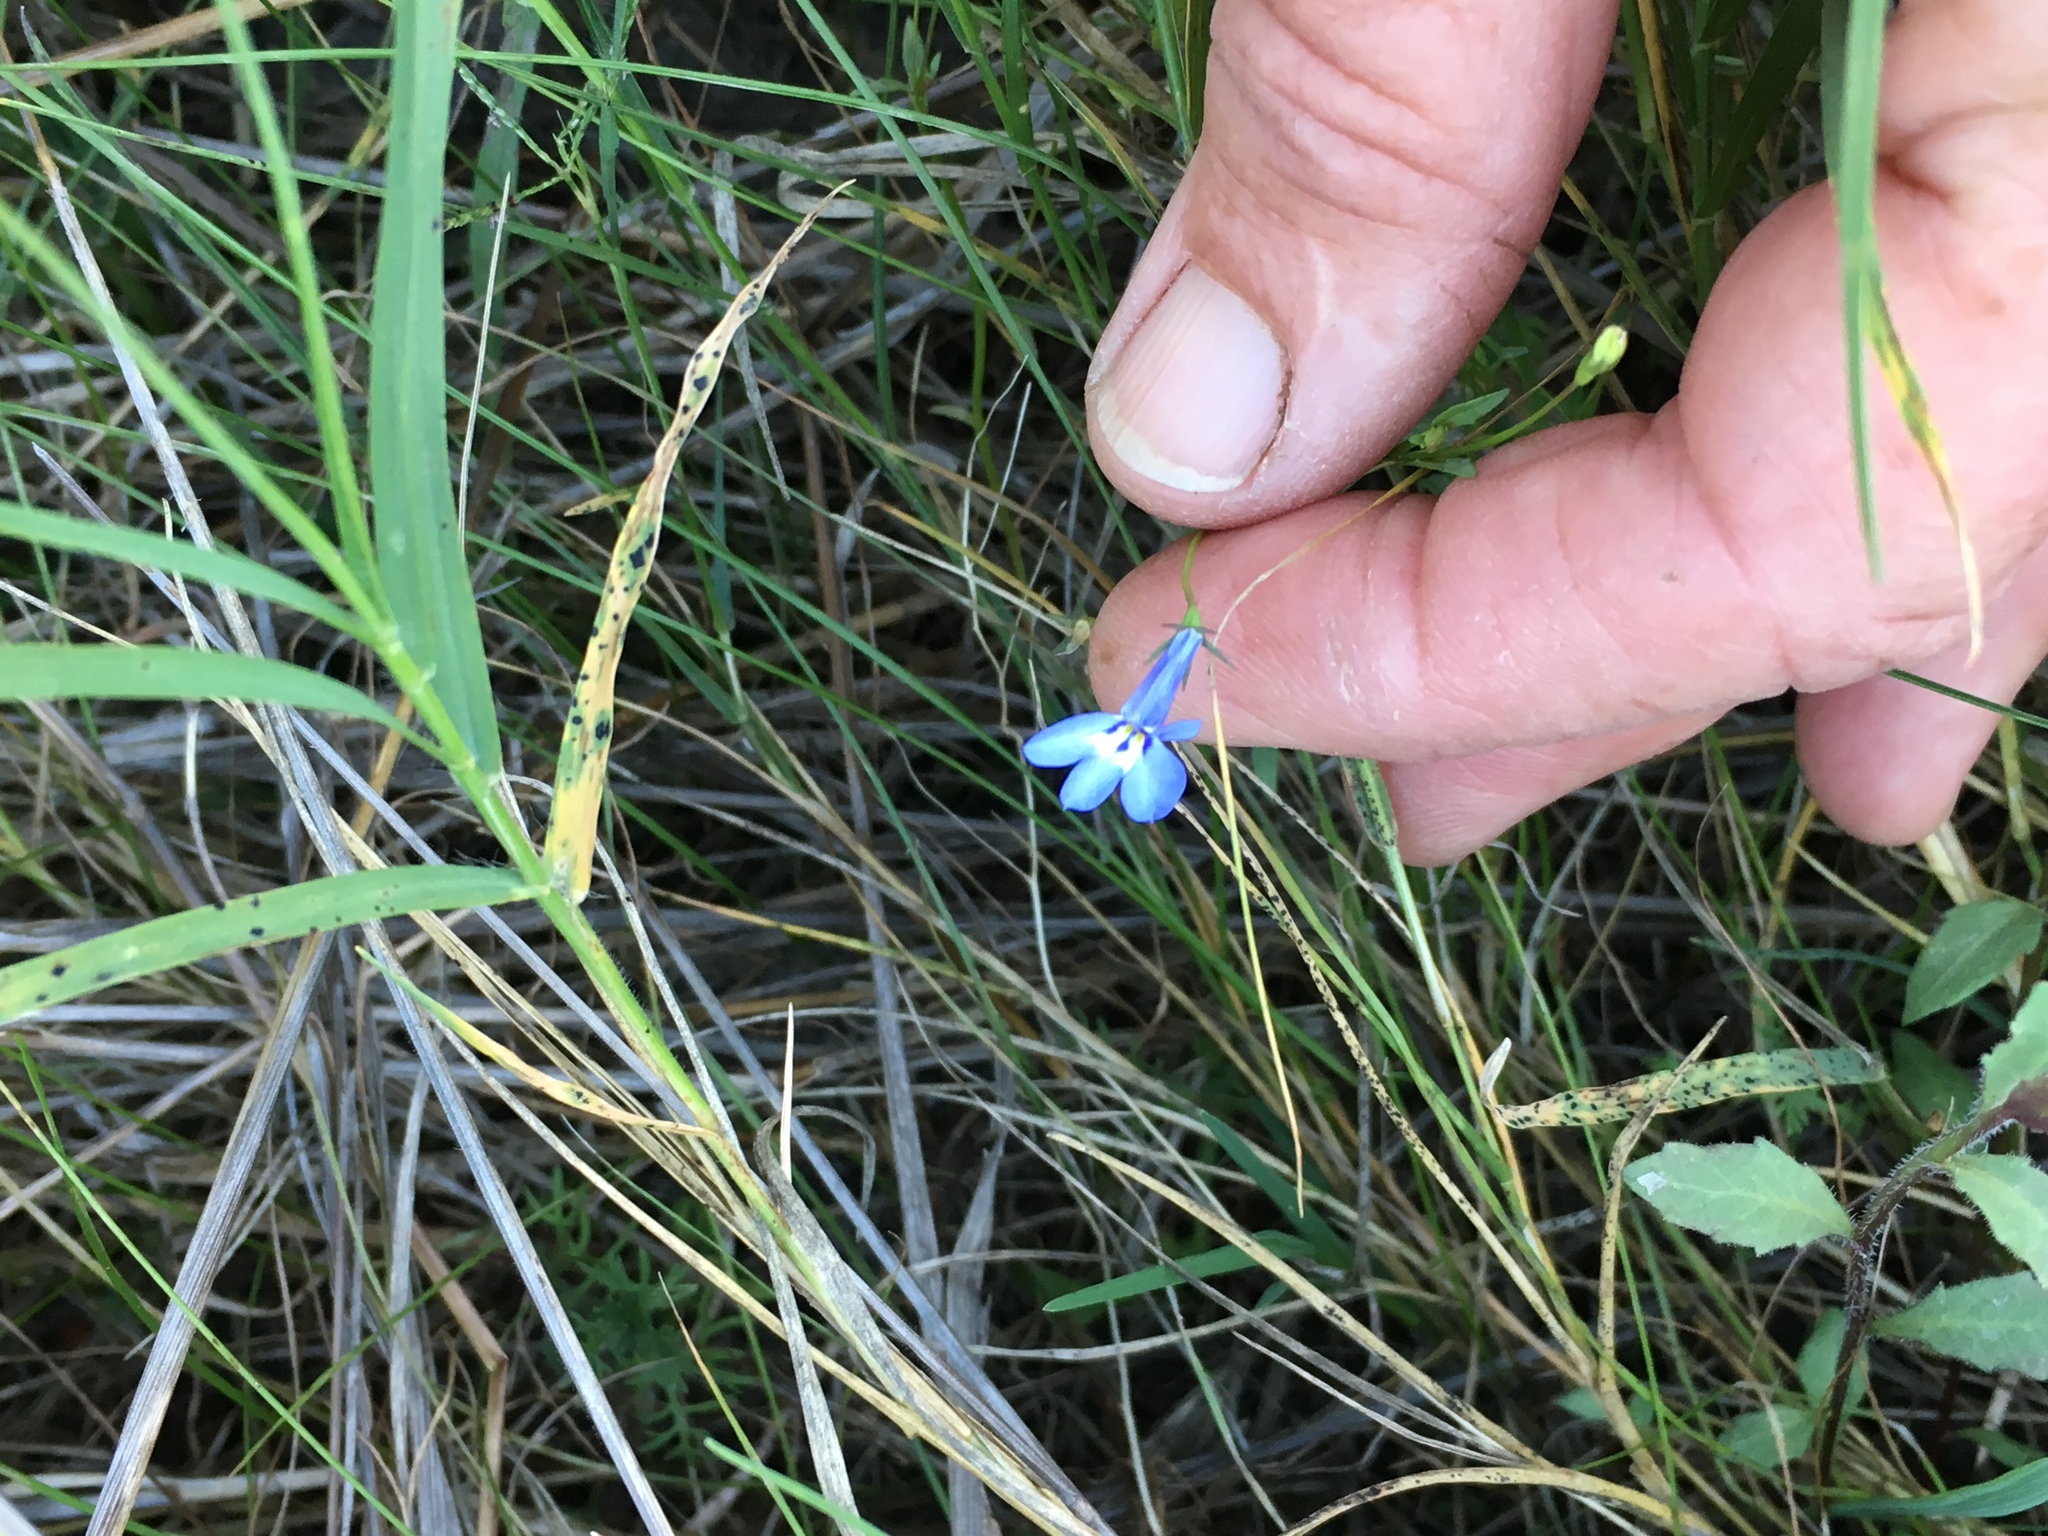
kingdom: Plantae
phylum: Tracheophyta
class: Magnoliopsida
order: Asterales
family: Campanulaceae
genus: Lobelia
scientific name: Lobelia erinus
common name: Edging lobelia
